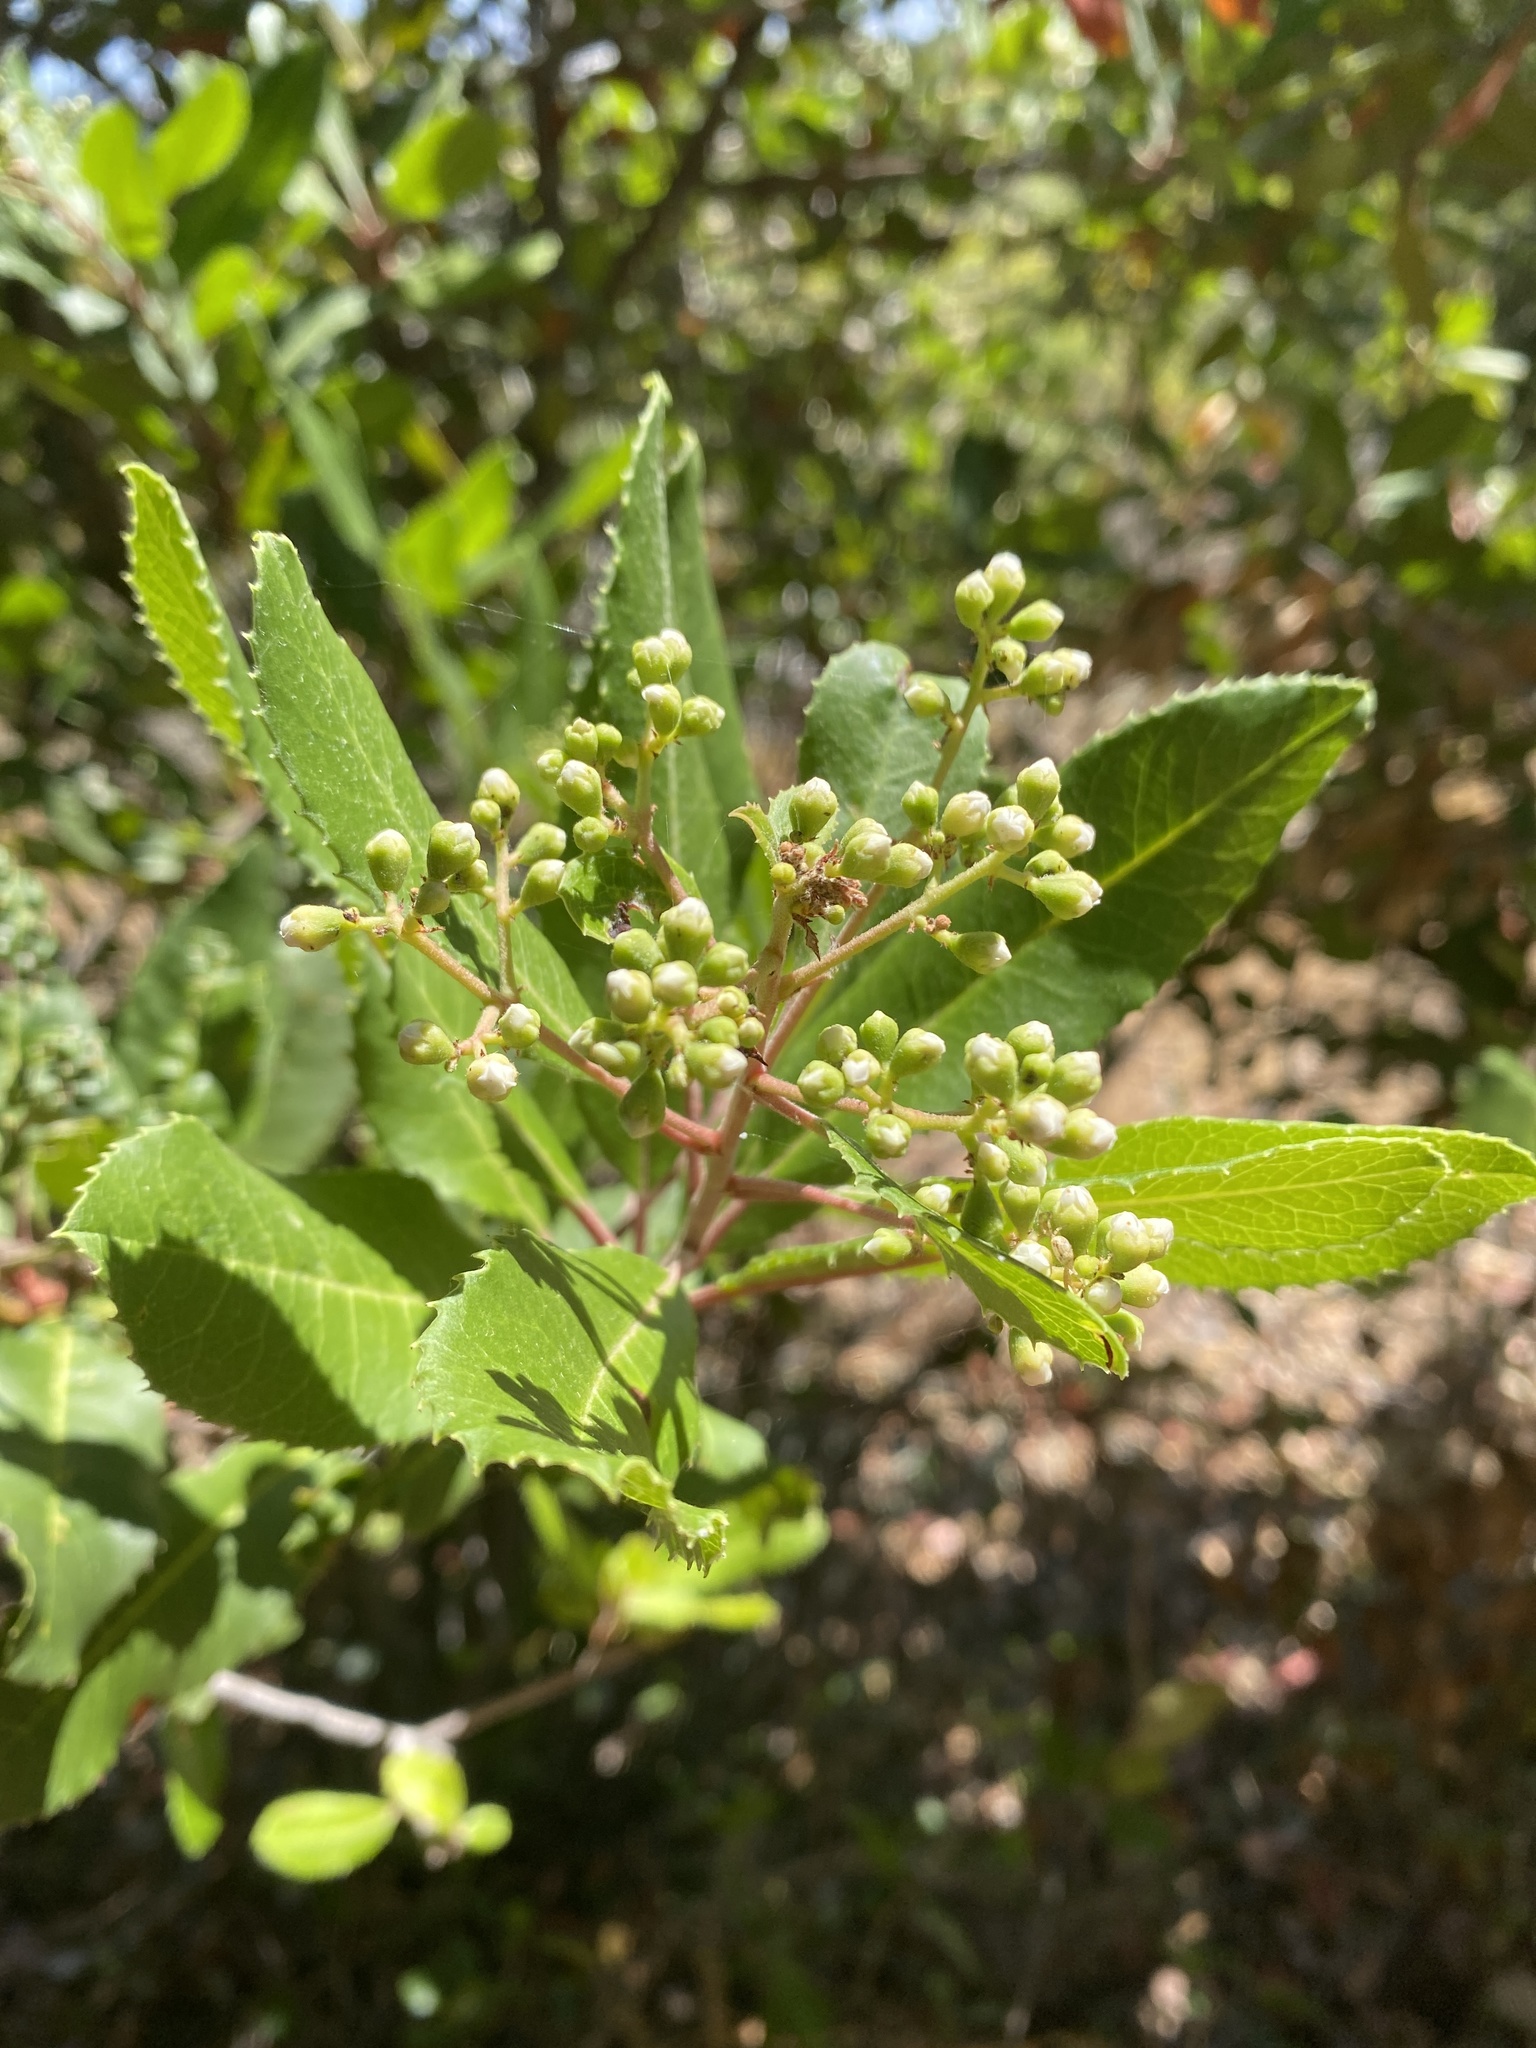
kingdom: Plantae
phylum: Tracheophyta
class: Magnoliopsida
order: Rosales
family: Rosaceae
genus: Heteromeles
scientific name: Heteromeles arbutifolia
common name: California-holly
